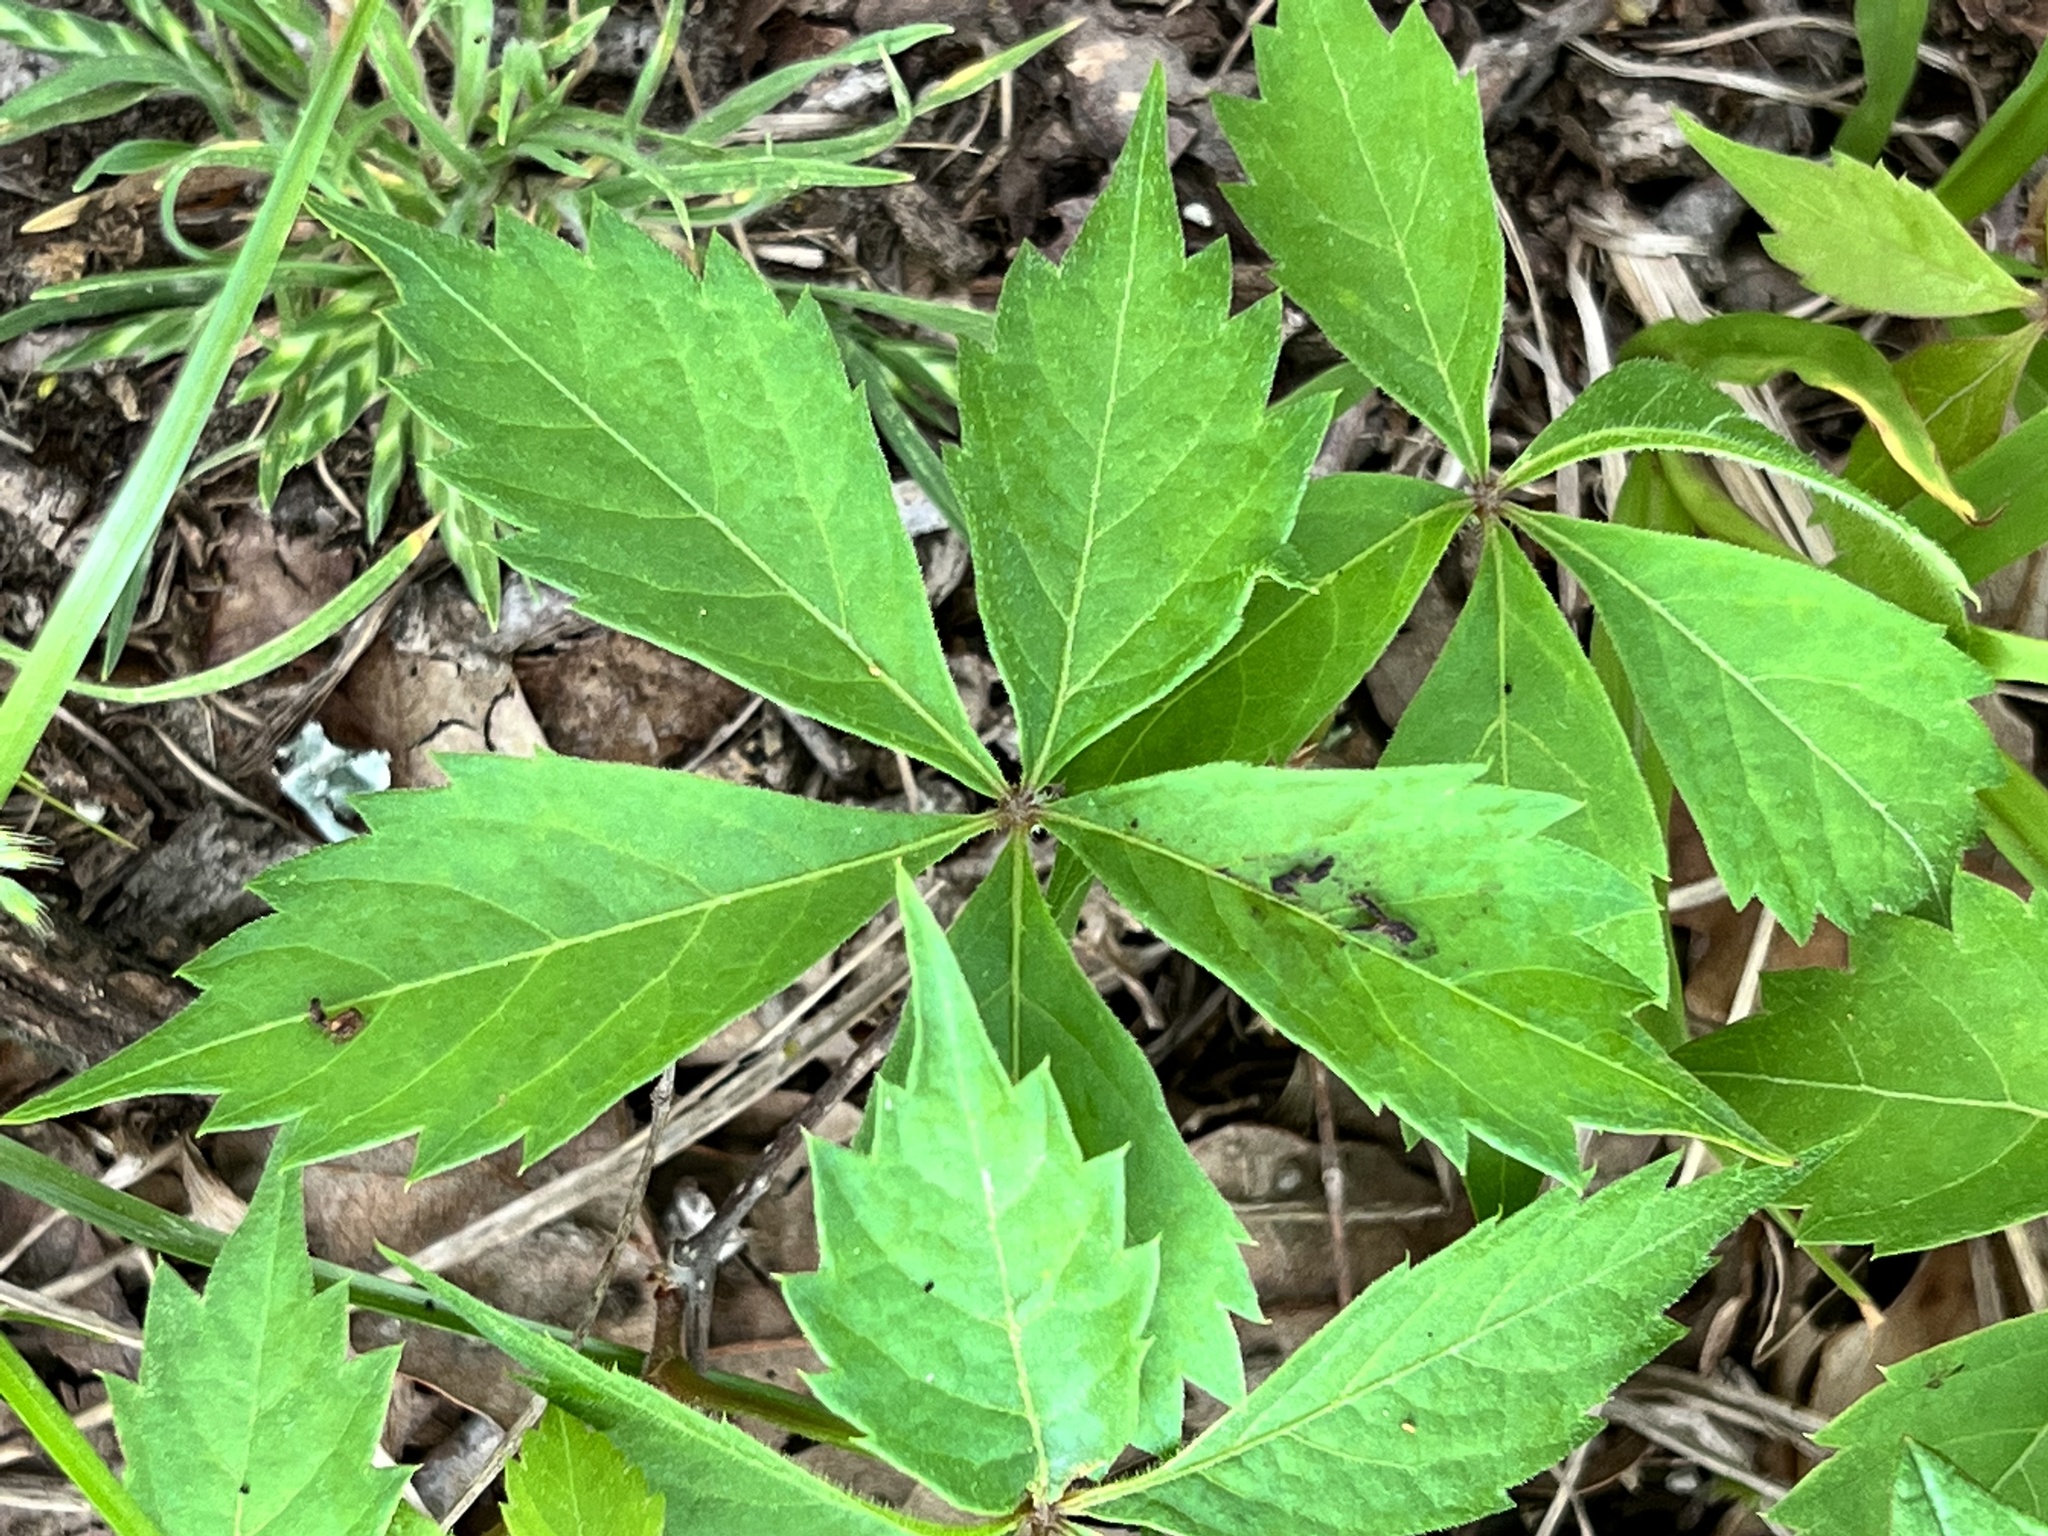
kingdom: Plantae
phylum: Tracheophyta
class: Magnoliopsida
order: Vitales
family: Vitaceae
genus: Parthenocissus
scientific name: Parthenocissus quinquefolia
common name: Virginia-creeper
